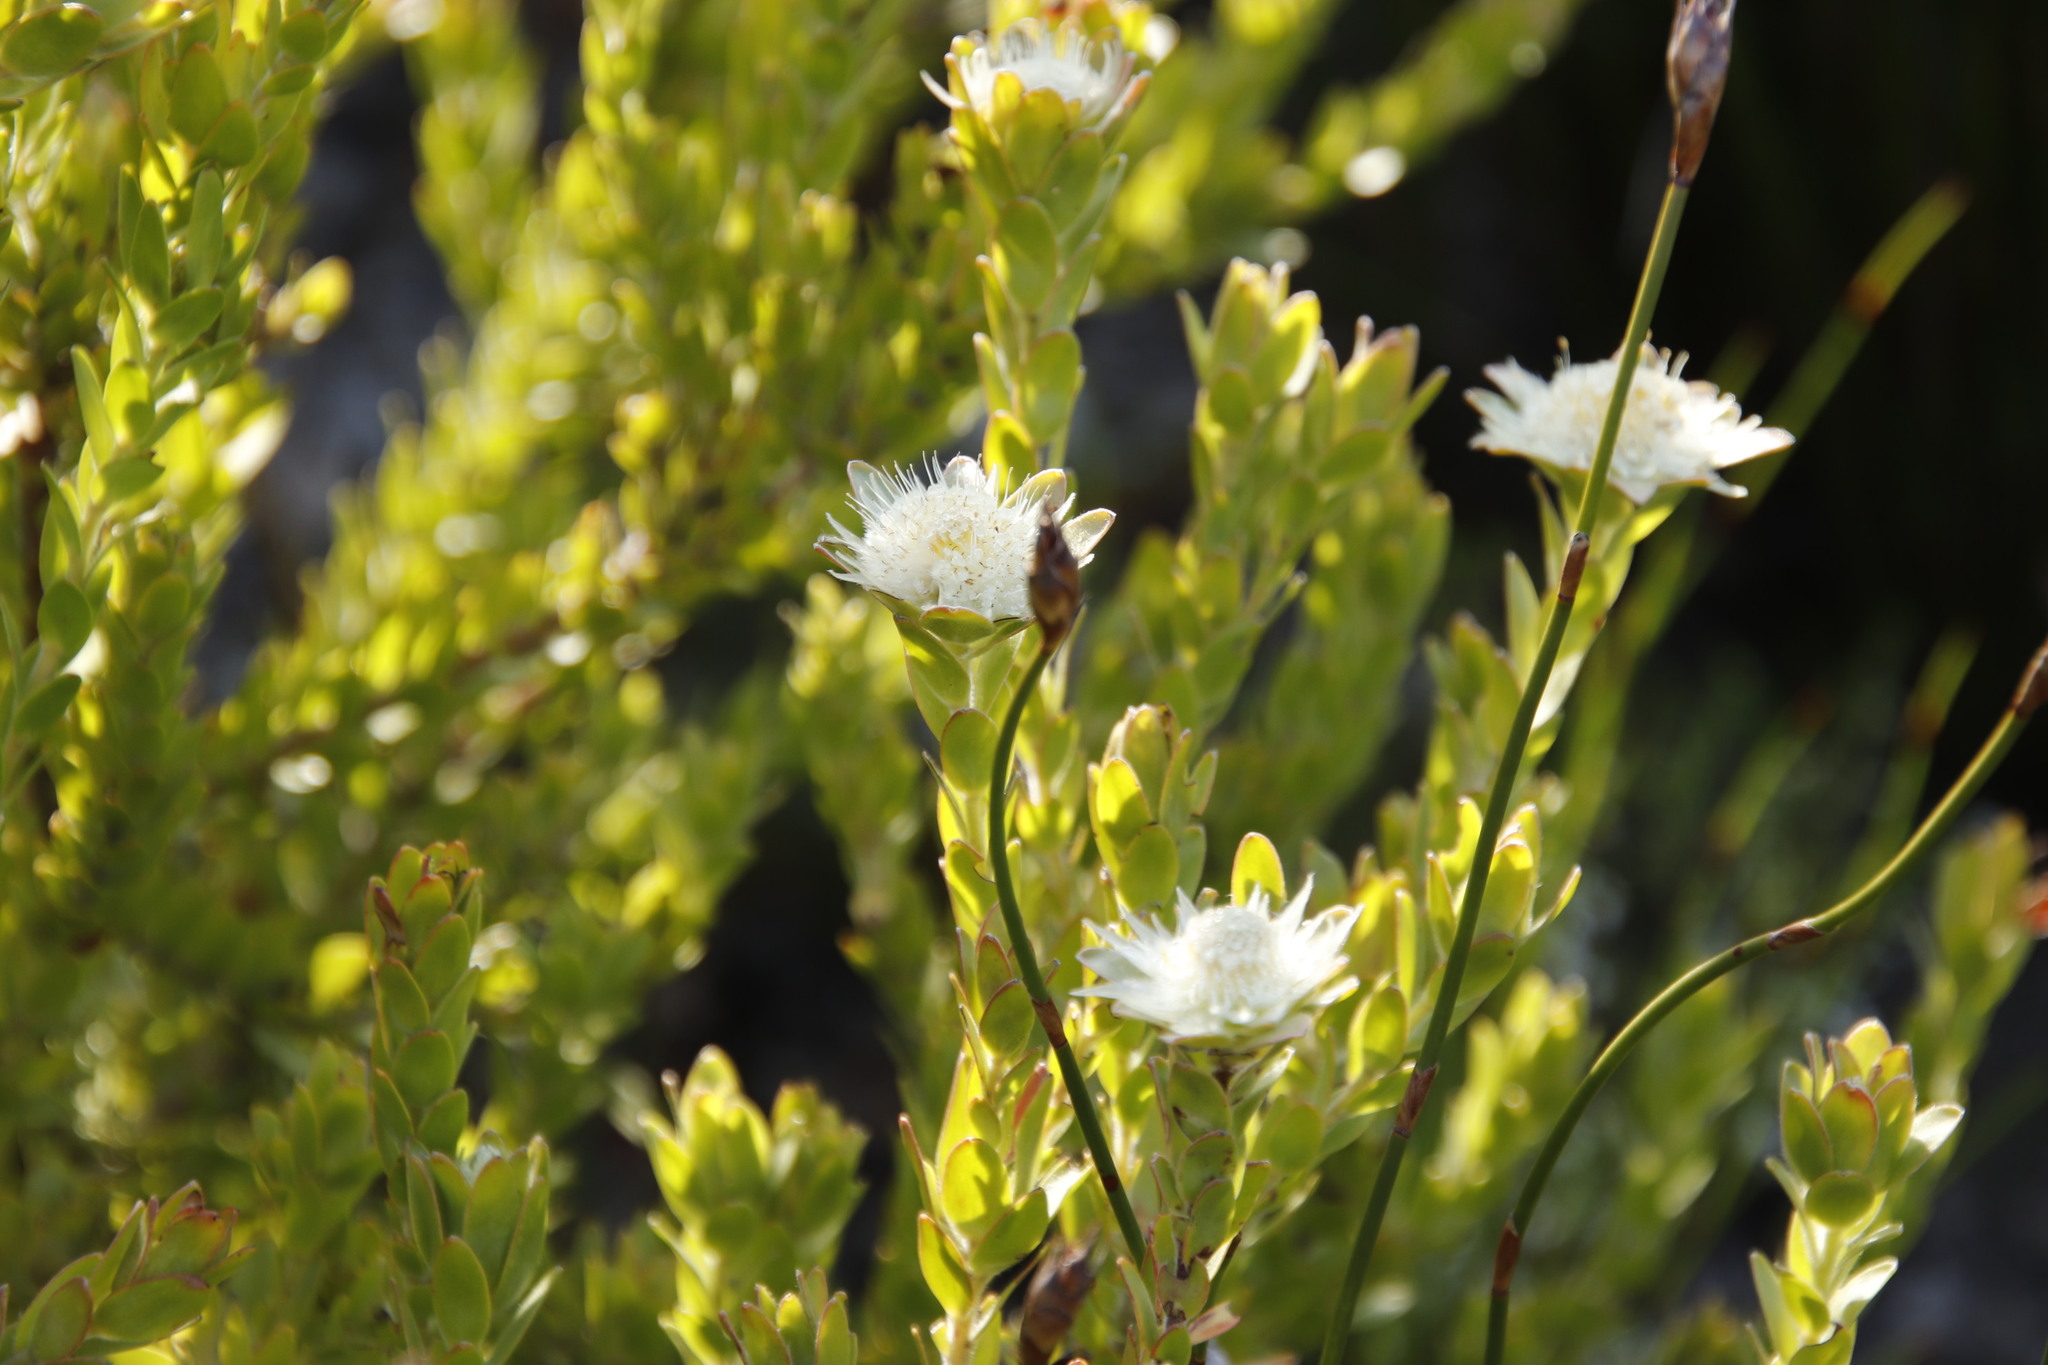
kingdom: Plantae
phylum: Tracheophyta
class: Magnoliopsida
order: Proteales
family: Proteaceae
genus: Diastella
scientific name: Diastella thymelaeoides
